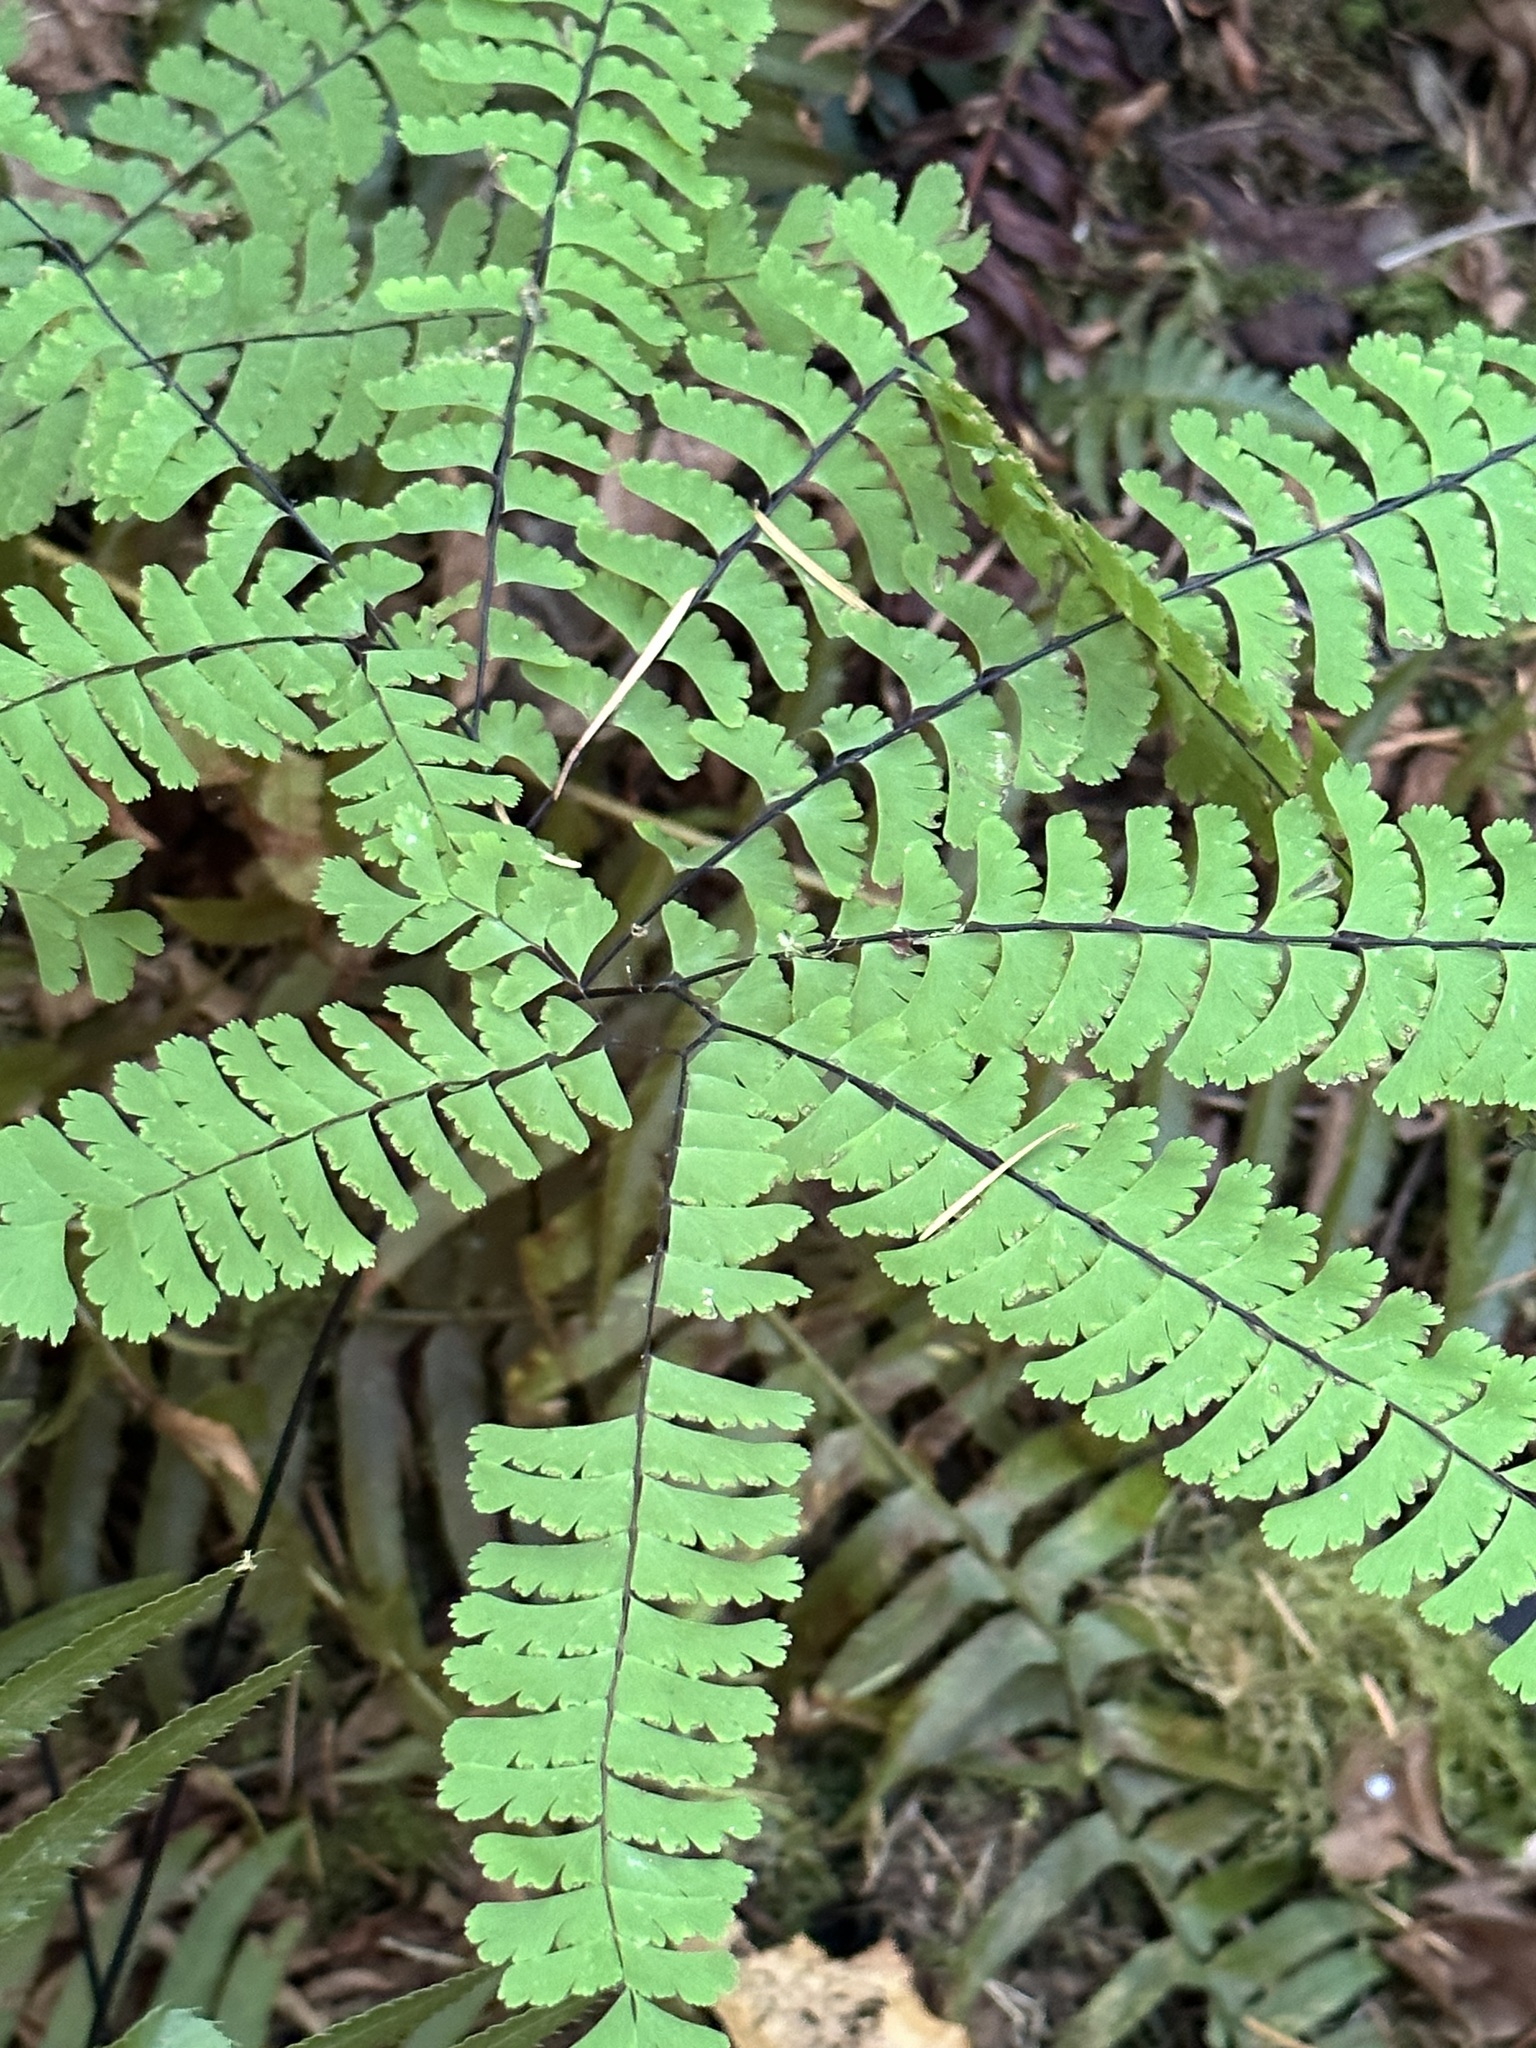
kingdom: Plantae
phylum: Tracheophyta
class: Polypodiopsida
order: Polypodiales
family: Pteridaceae
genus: Adiantum
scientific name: Adiantum aleuticum
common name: Aleutian maidenhair fern
